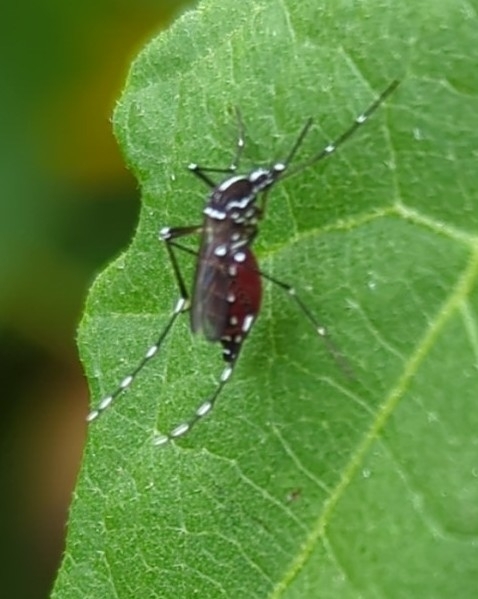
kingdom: Animalia
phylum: Arthropoda
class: Insecta
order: Diptera
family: Culicidae
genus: Aedes
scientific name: Aedes albopictus
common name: Tiger mosquito
